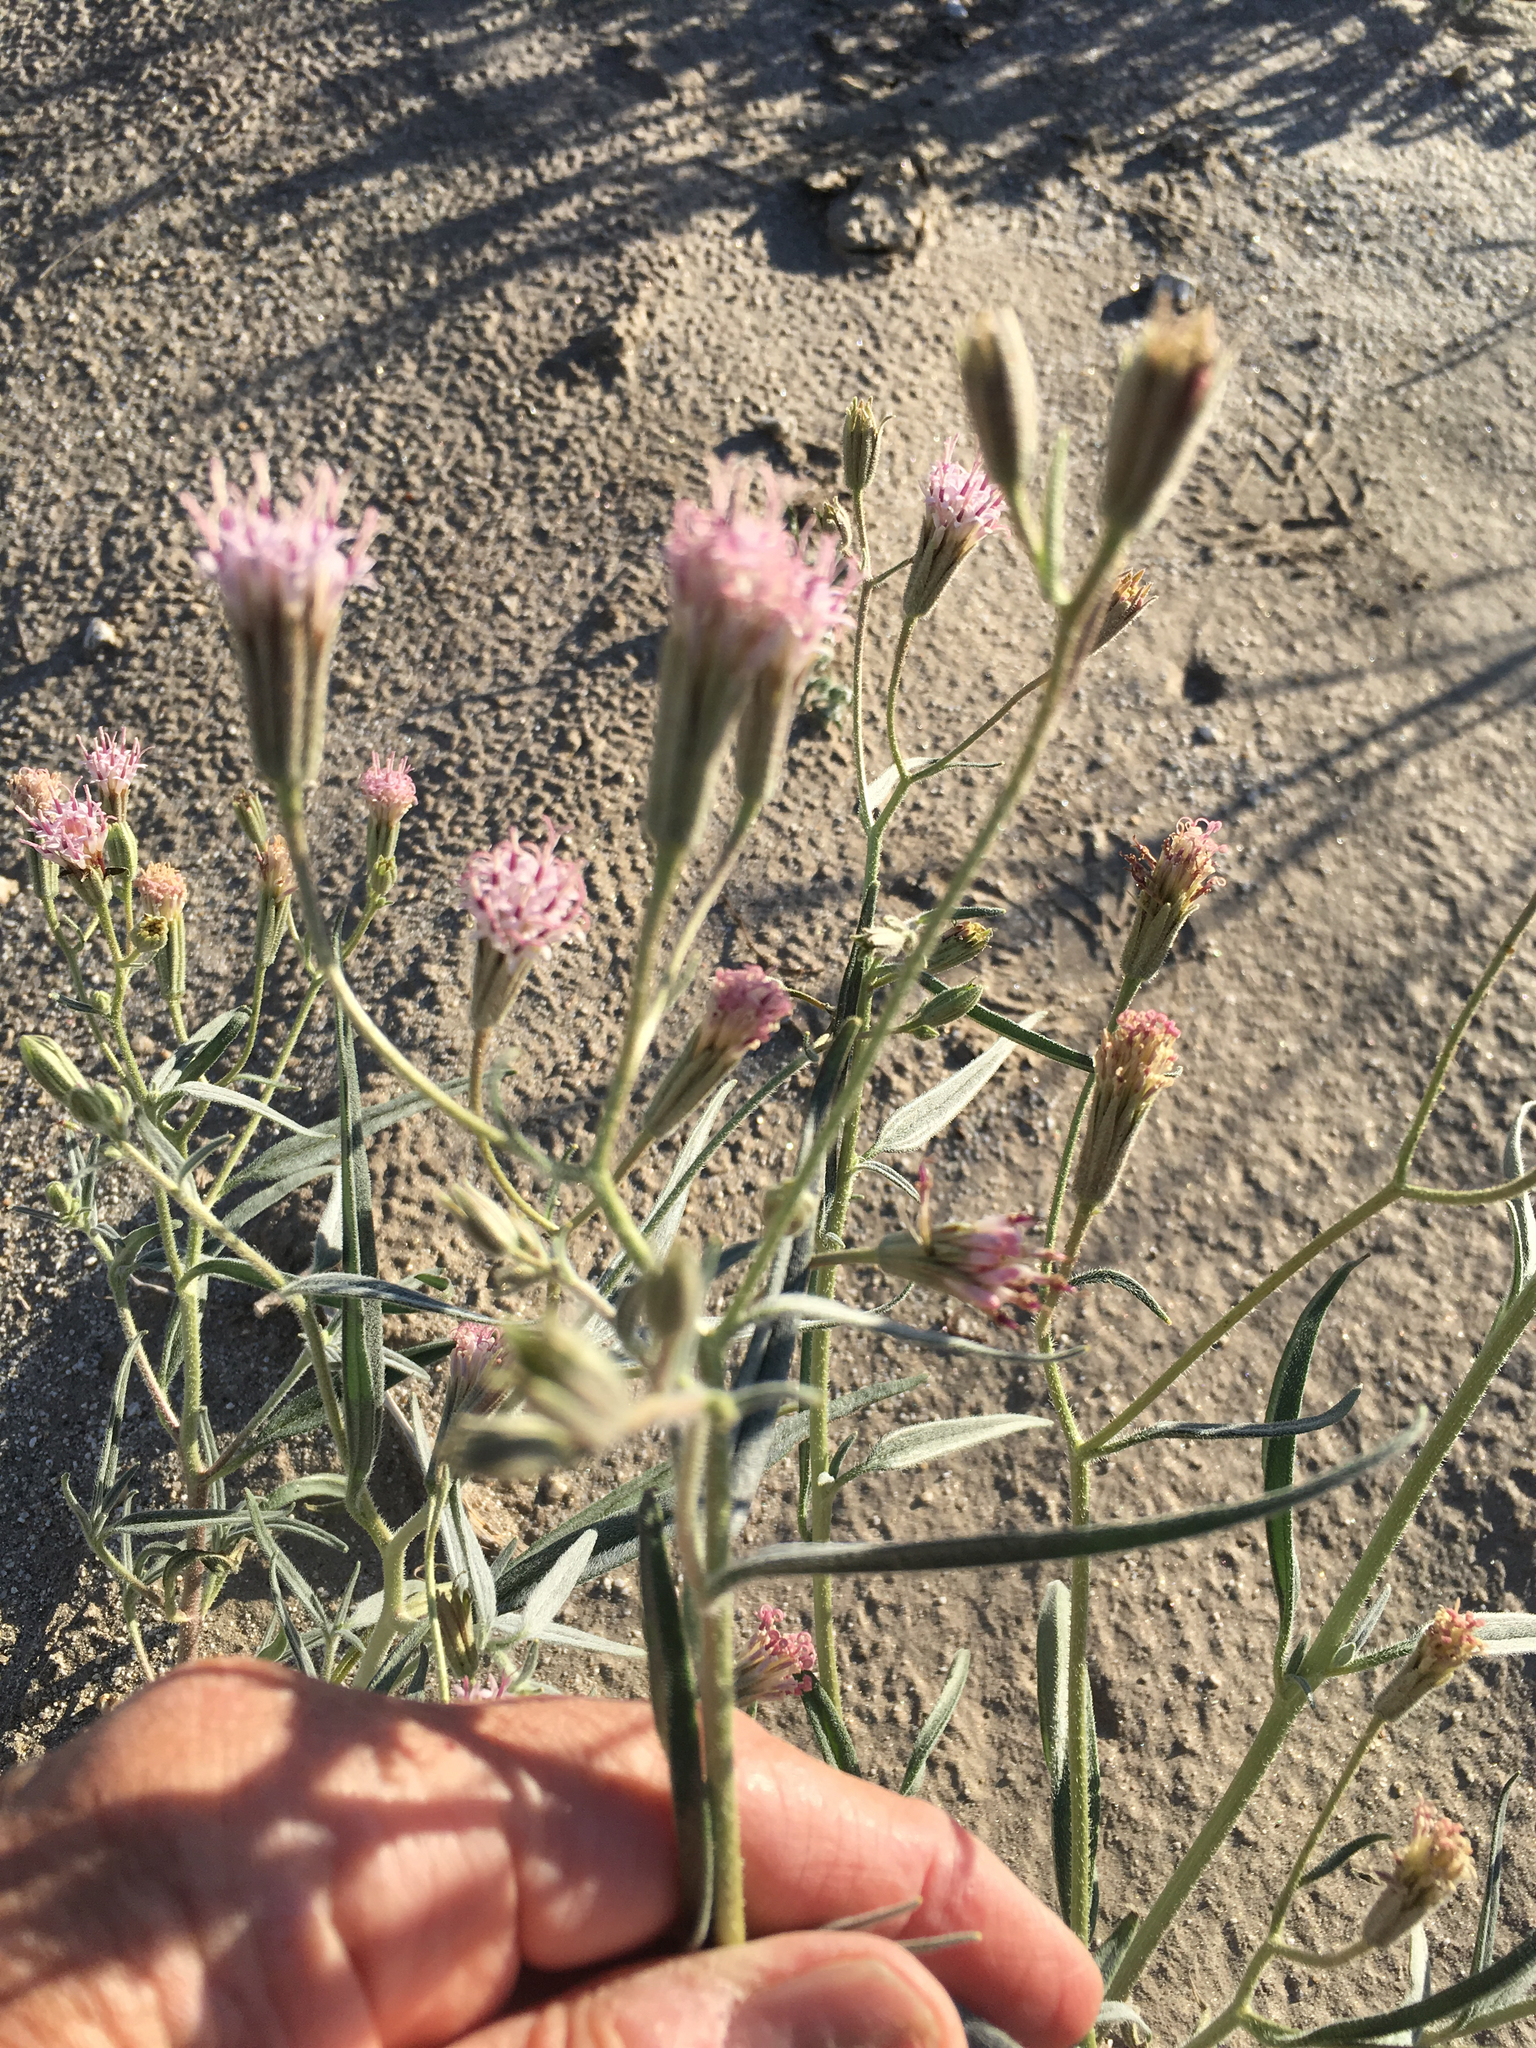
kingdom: Plantae
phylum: Tracheophyta
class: Magnoliopsida
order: Asterales
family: Asteraceae
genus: Palafoxia
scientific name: Palafoxia arida
